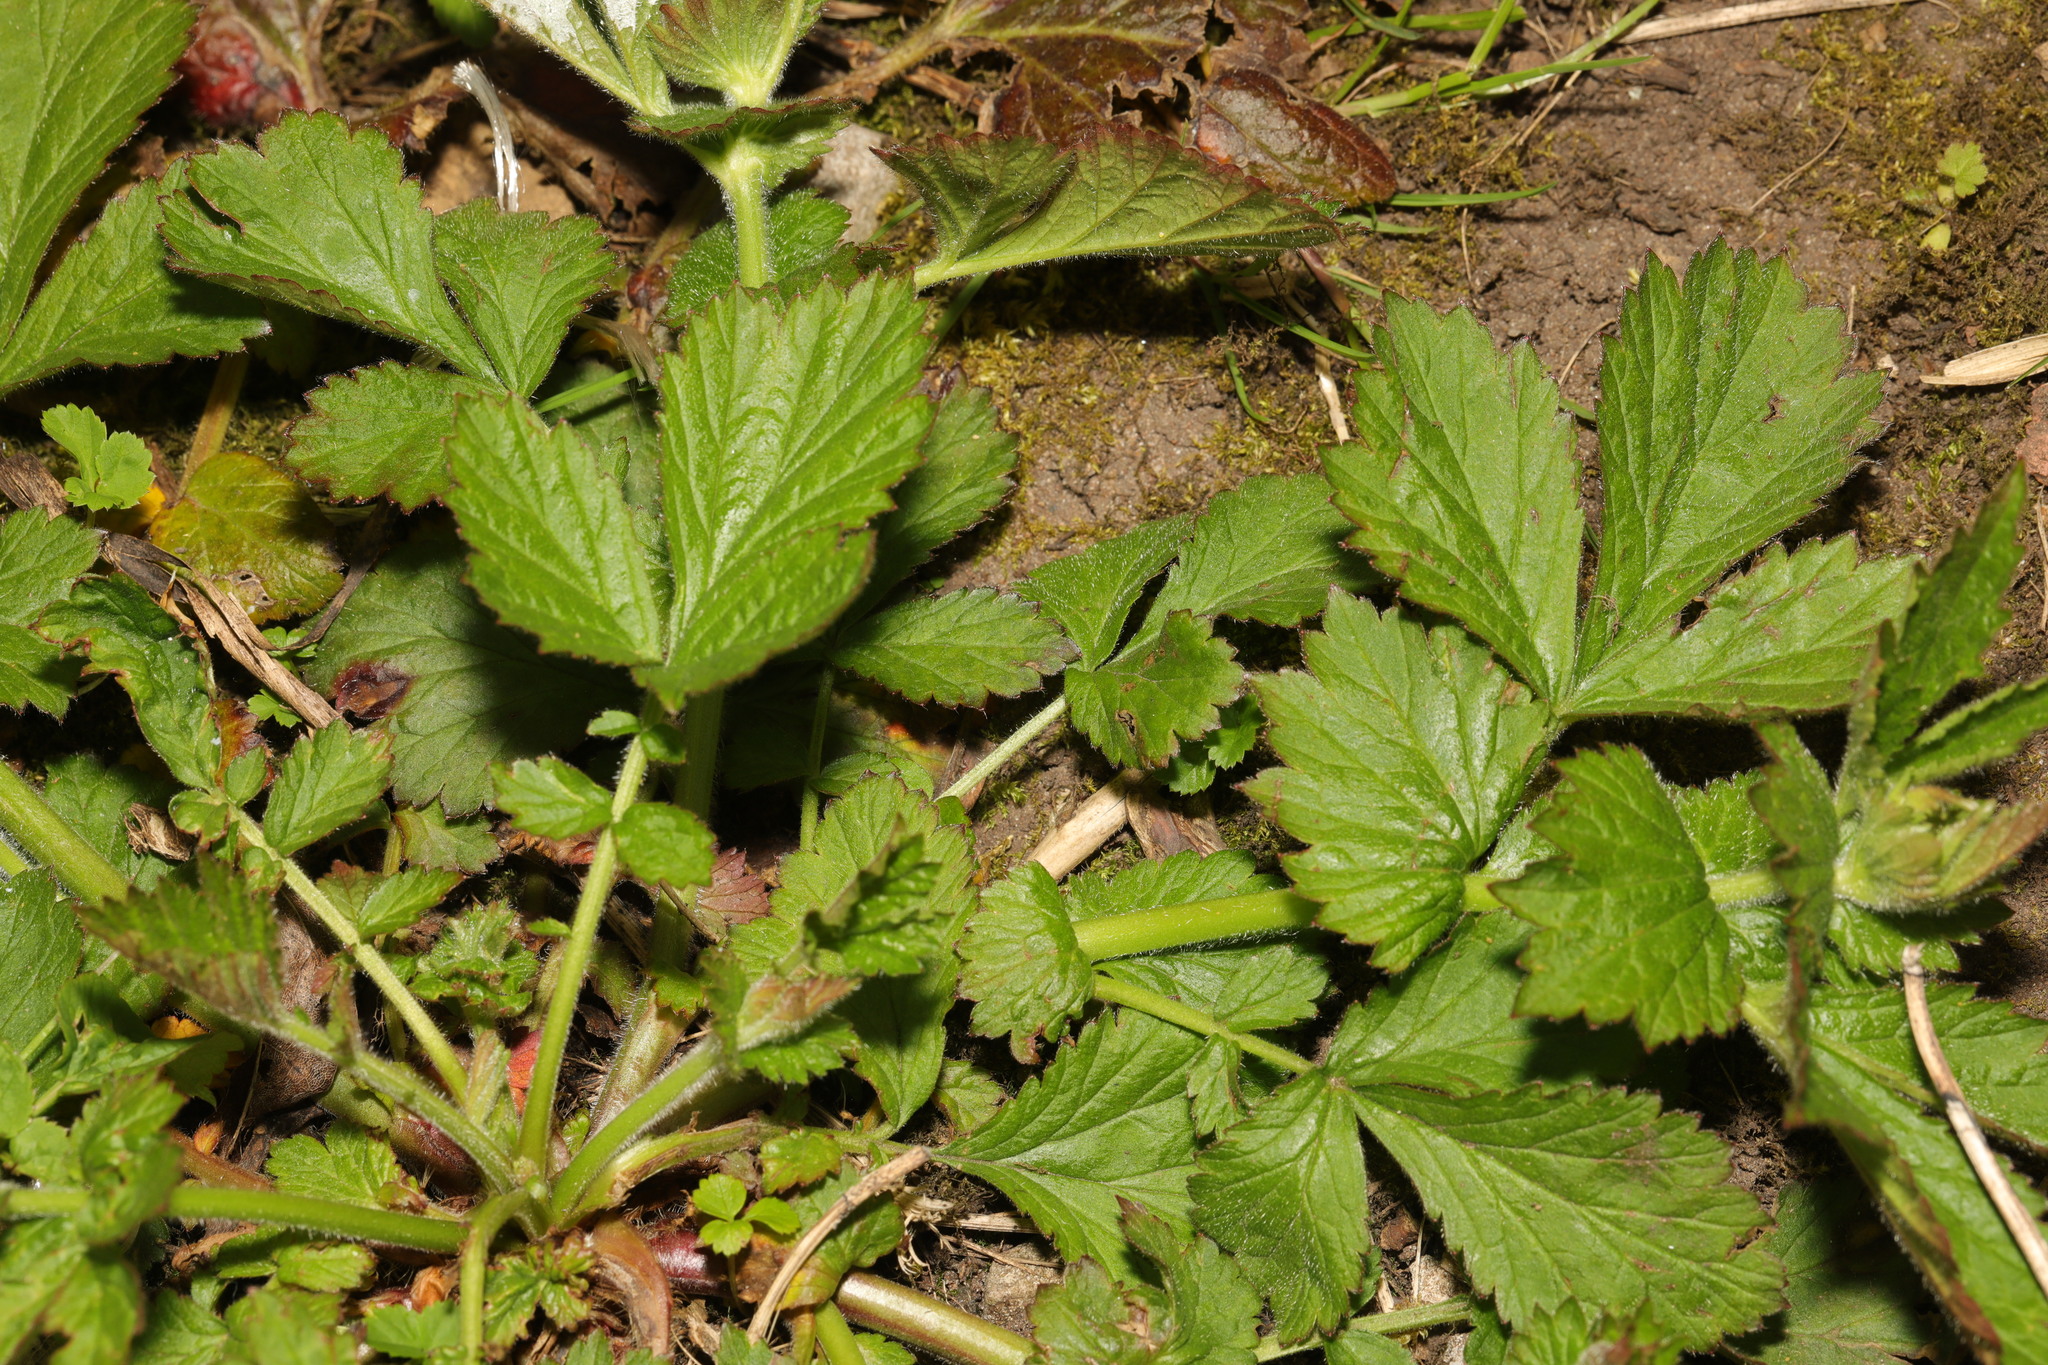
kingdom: Plantae
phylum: Tracheophyta
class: Magnoliopsida
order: Rosales
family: Rosaceae
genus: Geum
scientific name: Geum urbanum
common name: Wood avens
